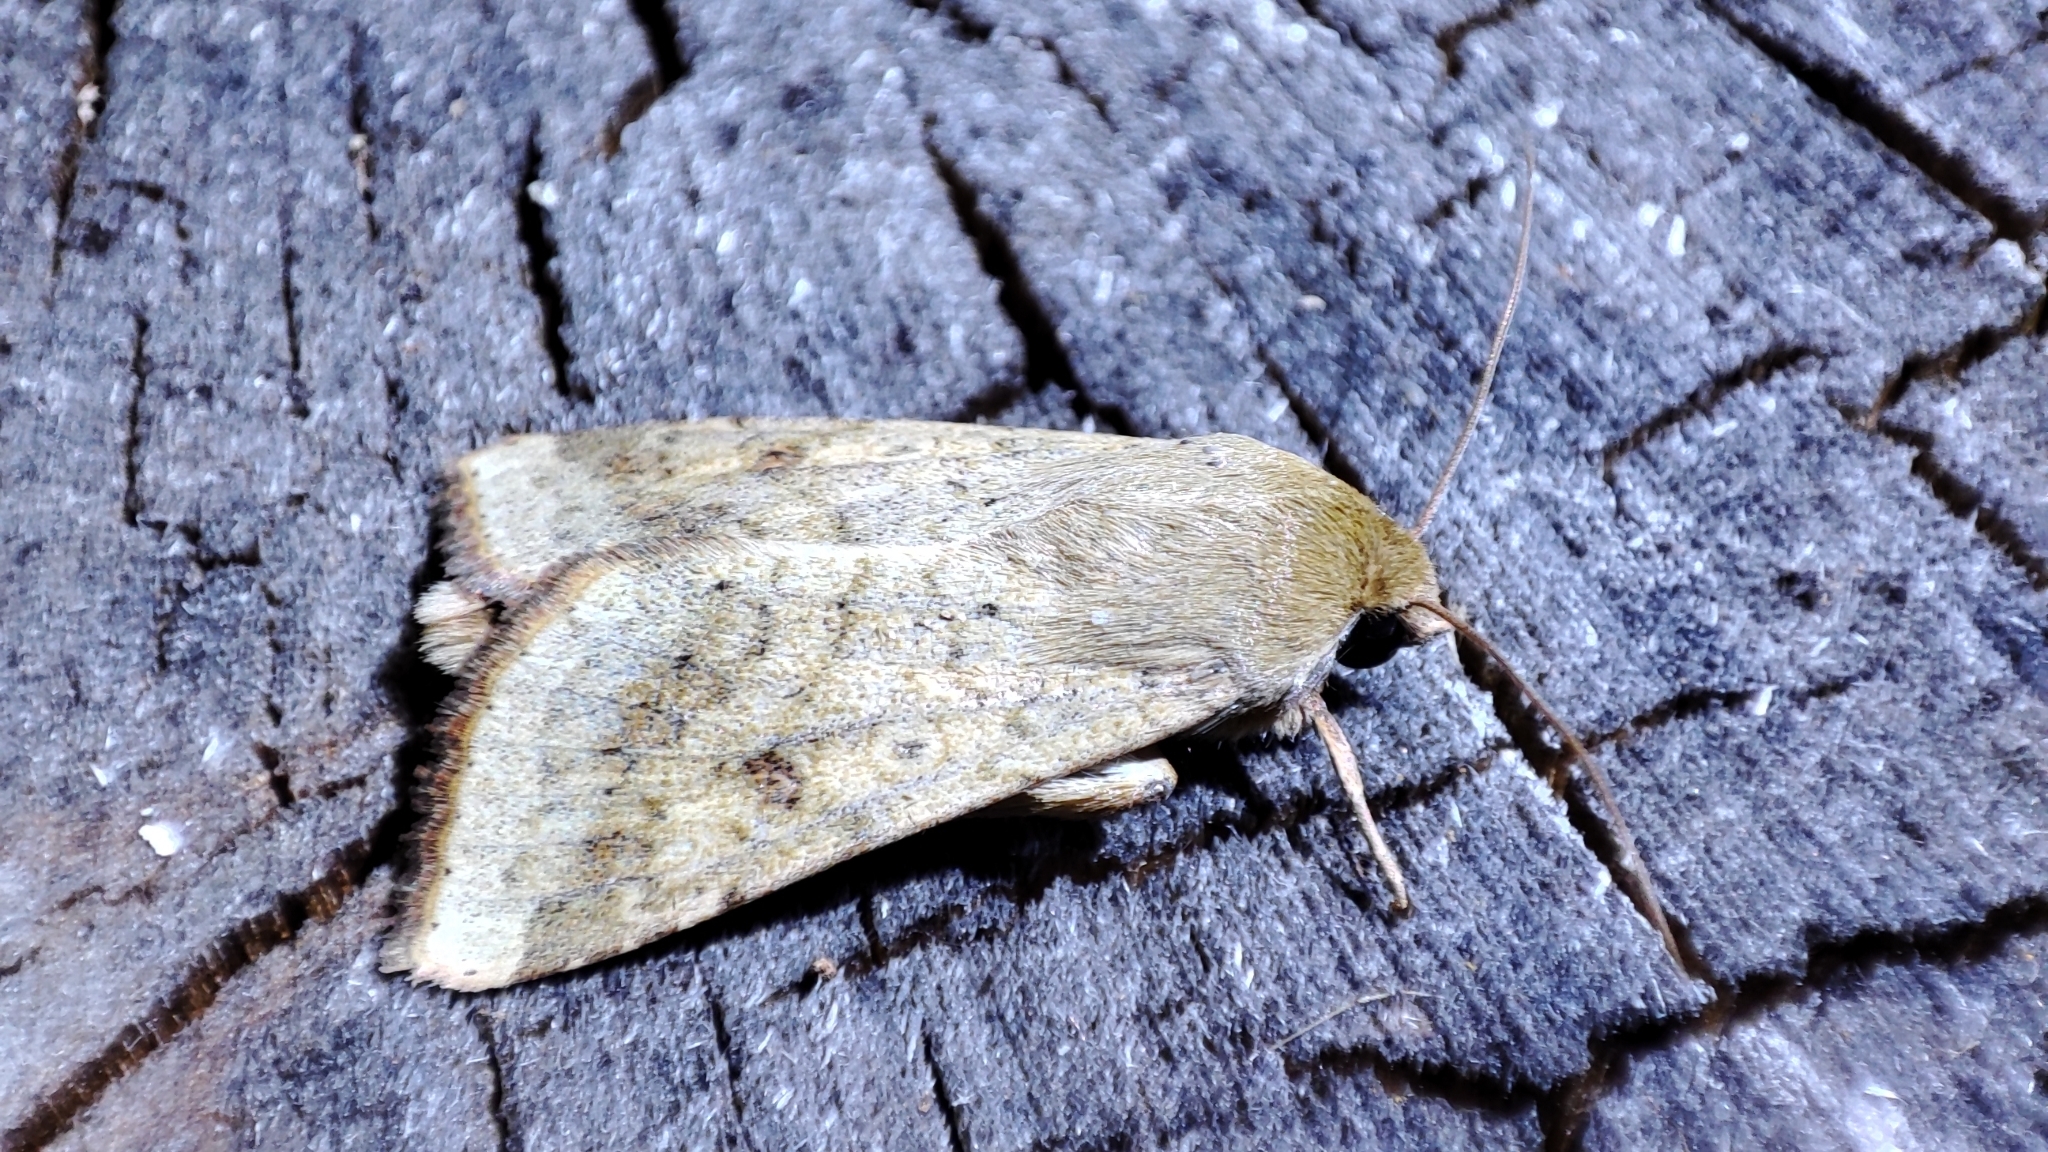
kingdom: Animalia
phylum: Arthropoda
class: Insecta
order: Lepidoptera
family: Noctuidae
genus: Helicoverpa
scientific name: Helicoverpa armigera
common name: Cotton bollworm
